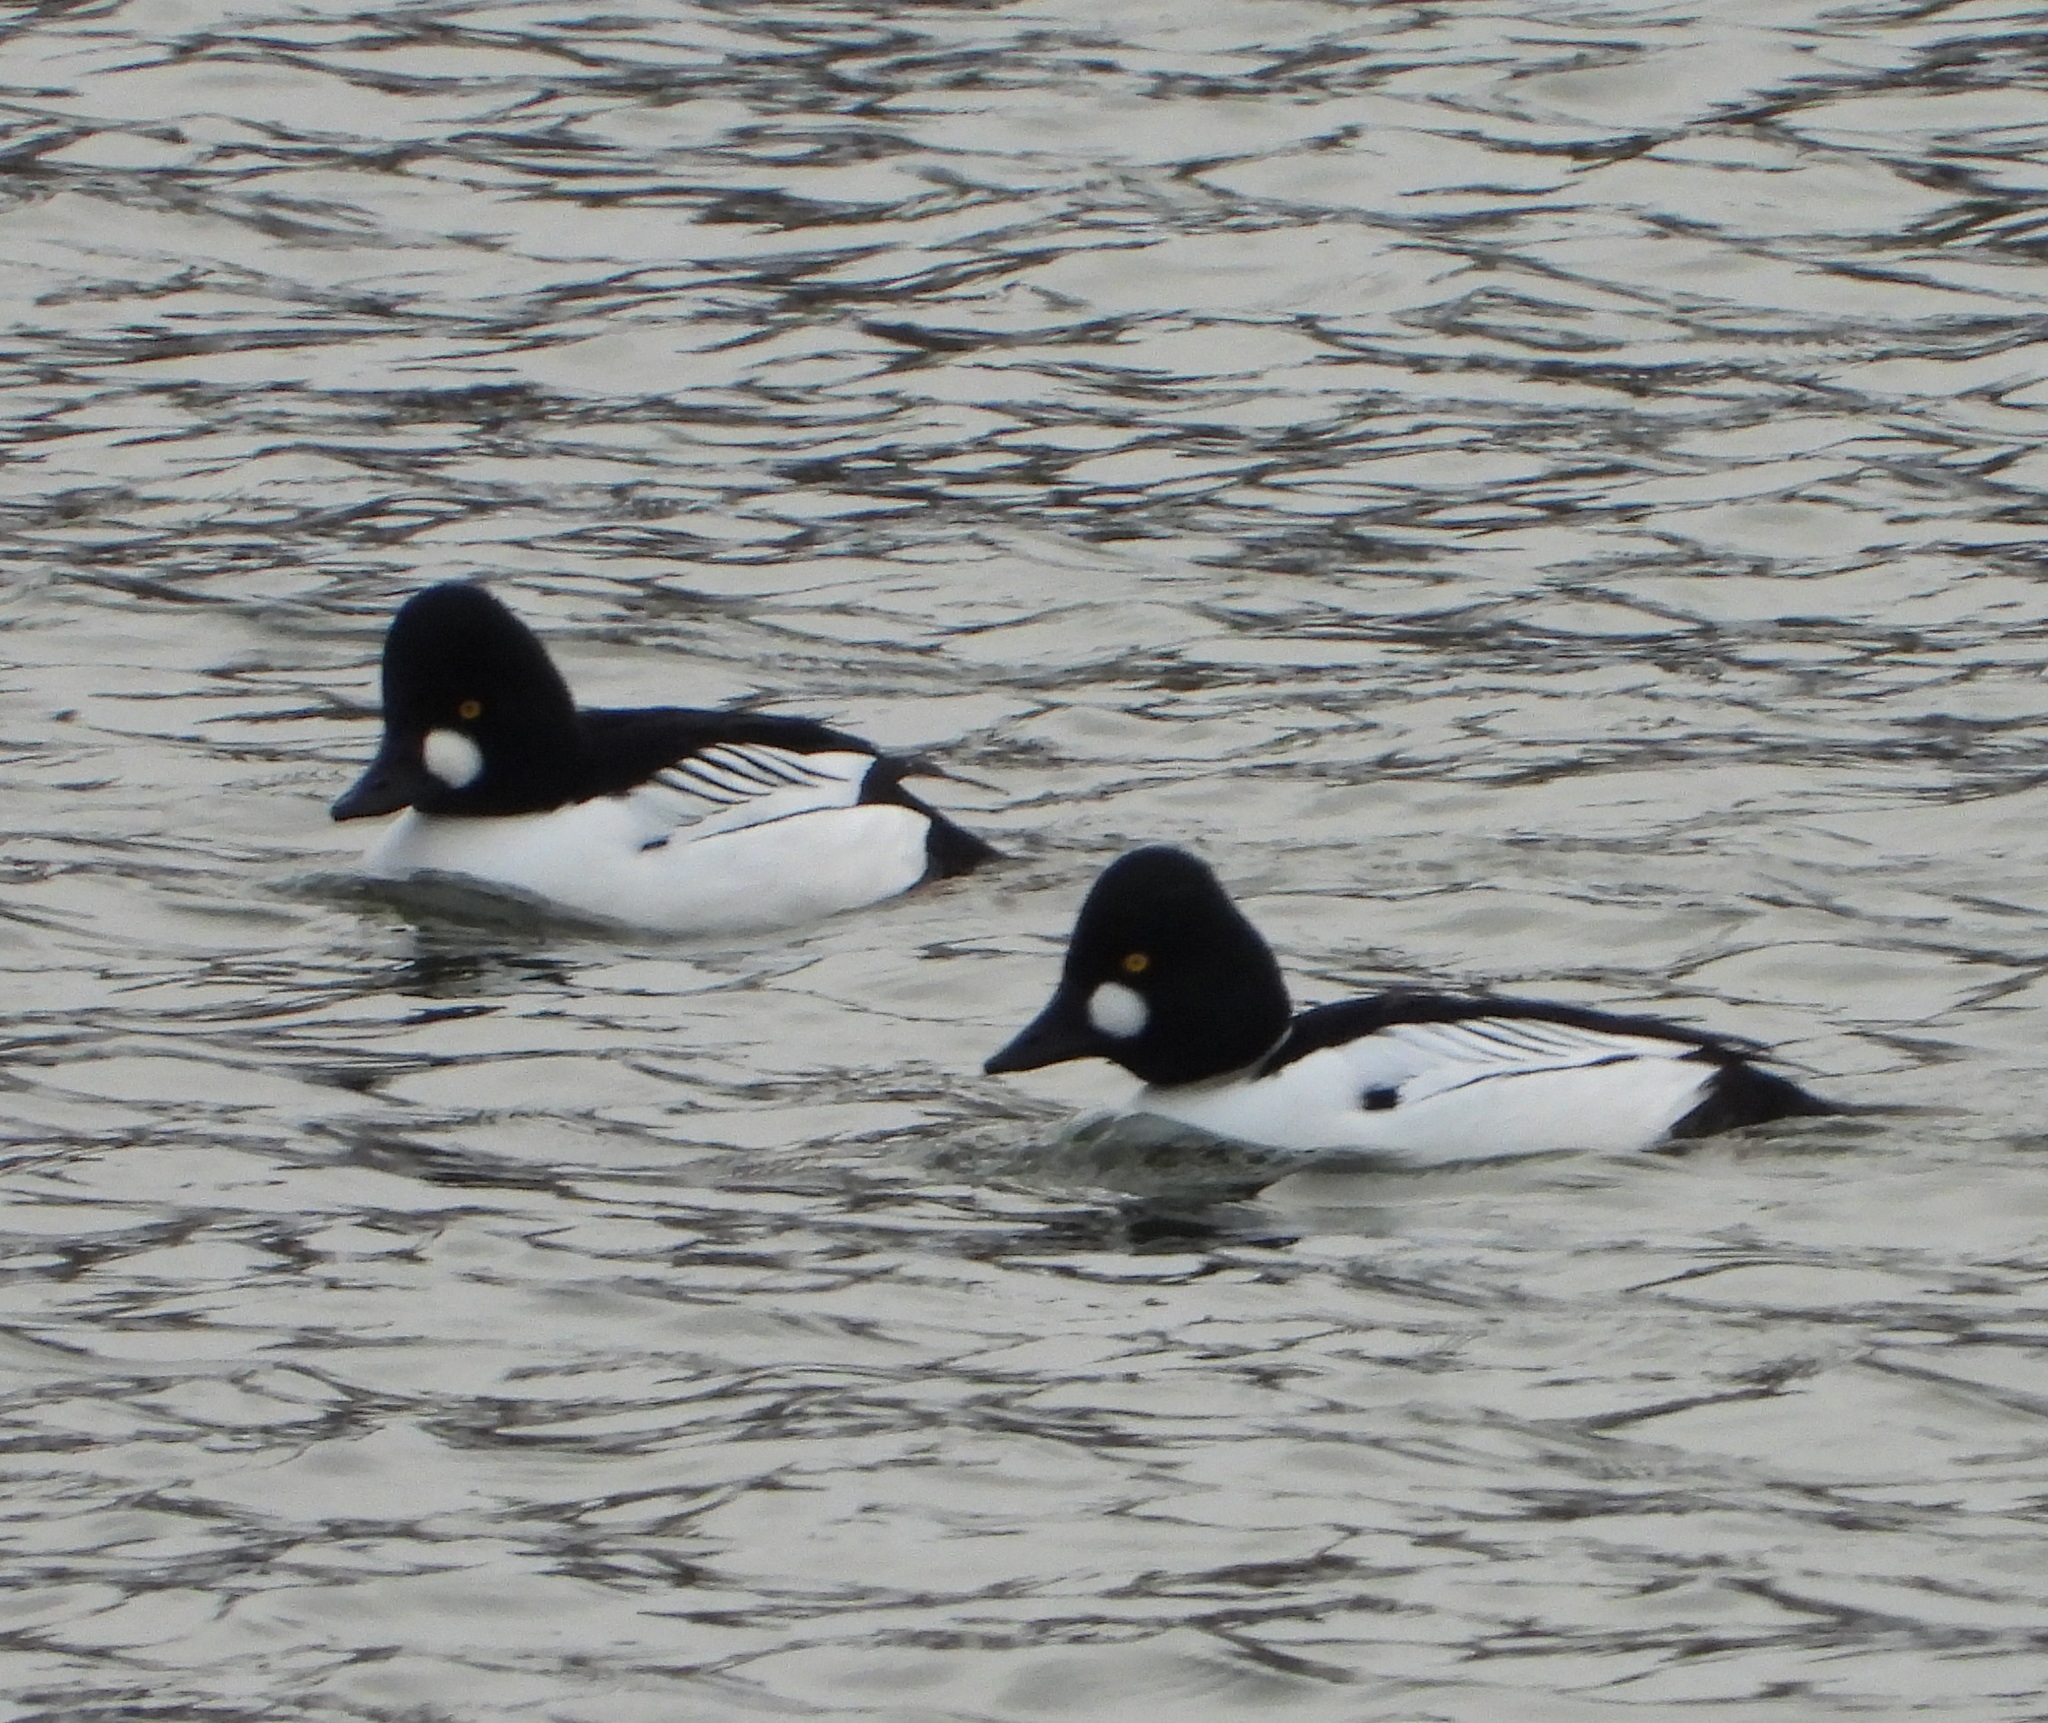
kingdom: Animalia
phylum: Chordata
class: Aves
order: Anseriformes
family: Anatidae
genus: Bucephala
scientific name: Bucephala clangula
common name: Common goldeneye
